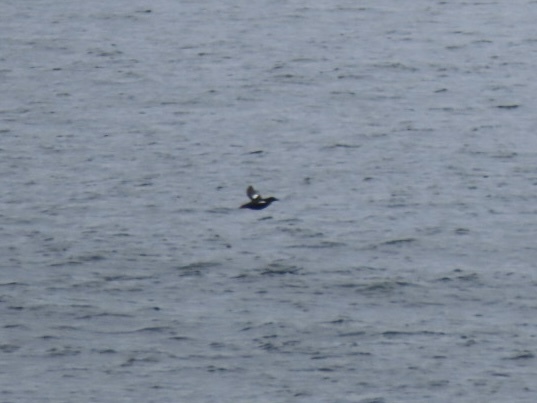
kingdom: Animalia
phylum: Chordata
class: Aves
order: Charadriiformes
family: Alcidae
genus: Cepphus
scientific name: Cepphus columba
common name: Pigeon guillemot
